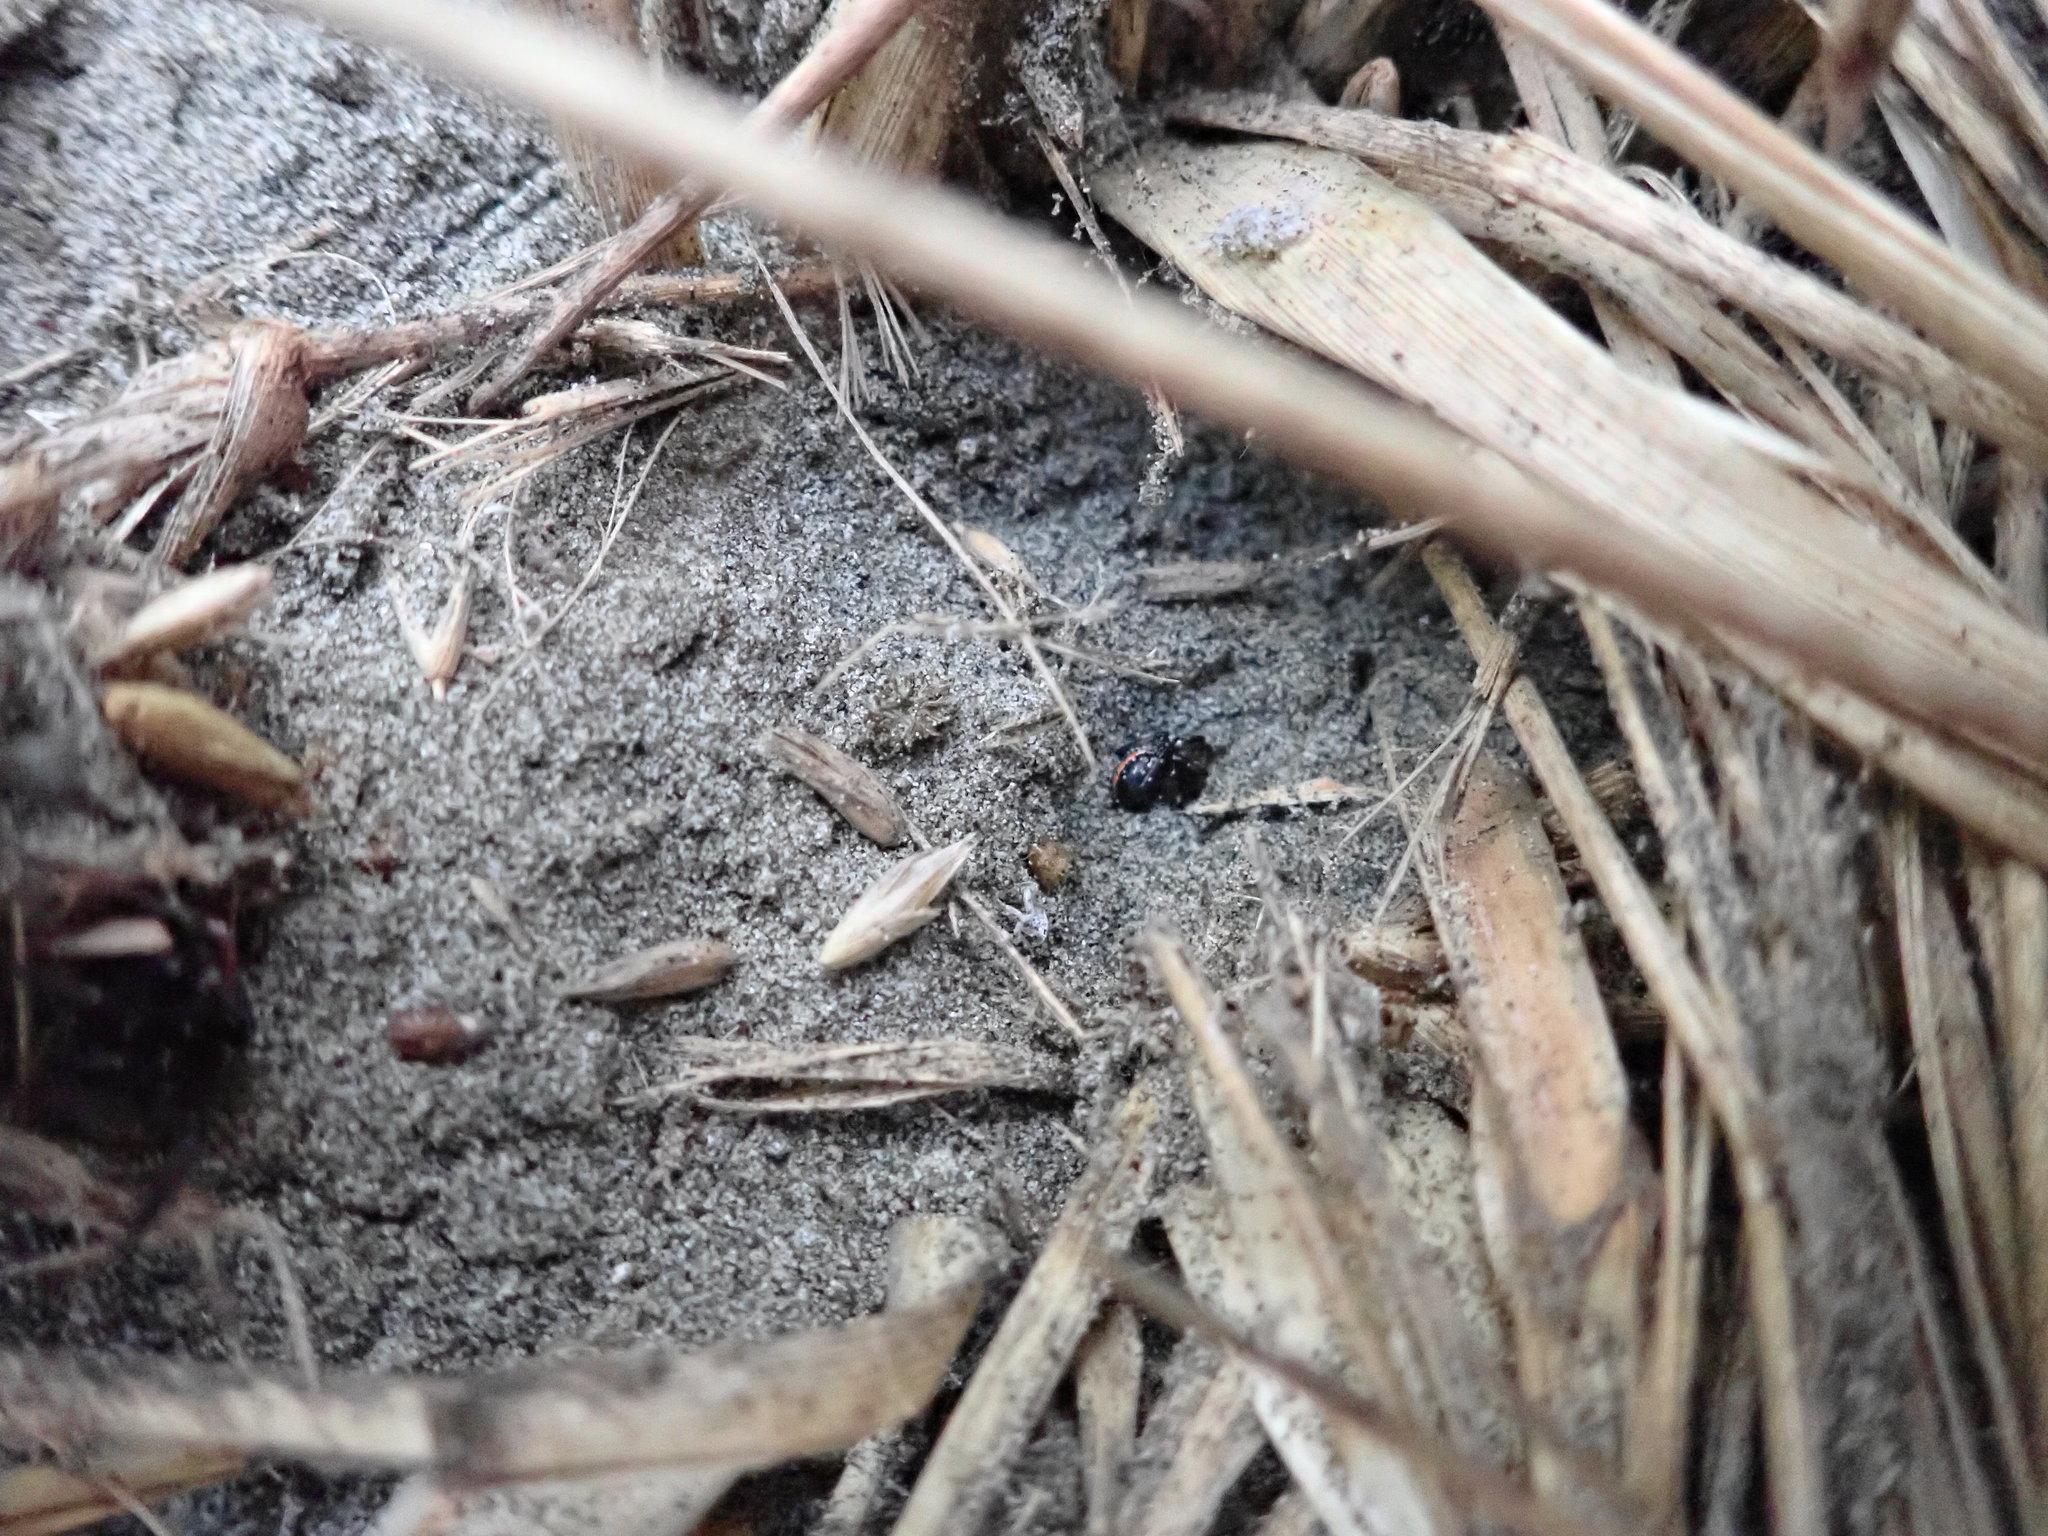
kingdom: Animalia
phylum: Arthropoda
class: Arachnida
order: Araneae
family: Theridiidae
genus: Latrodectus
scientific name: Latrodectus katipo
